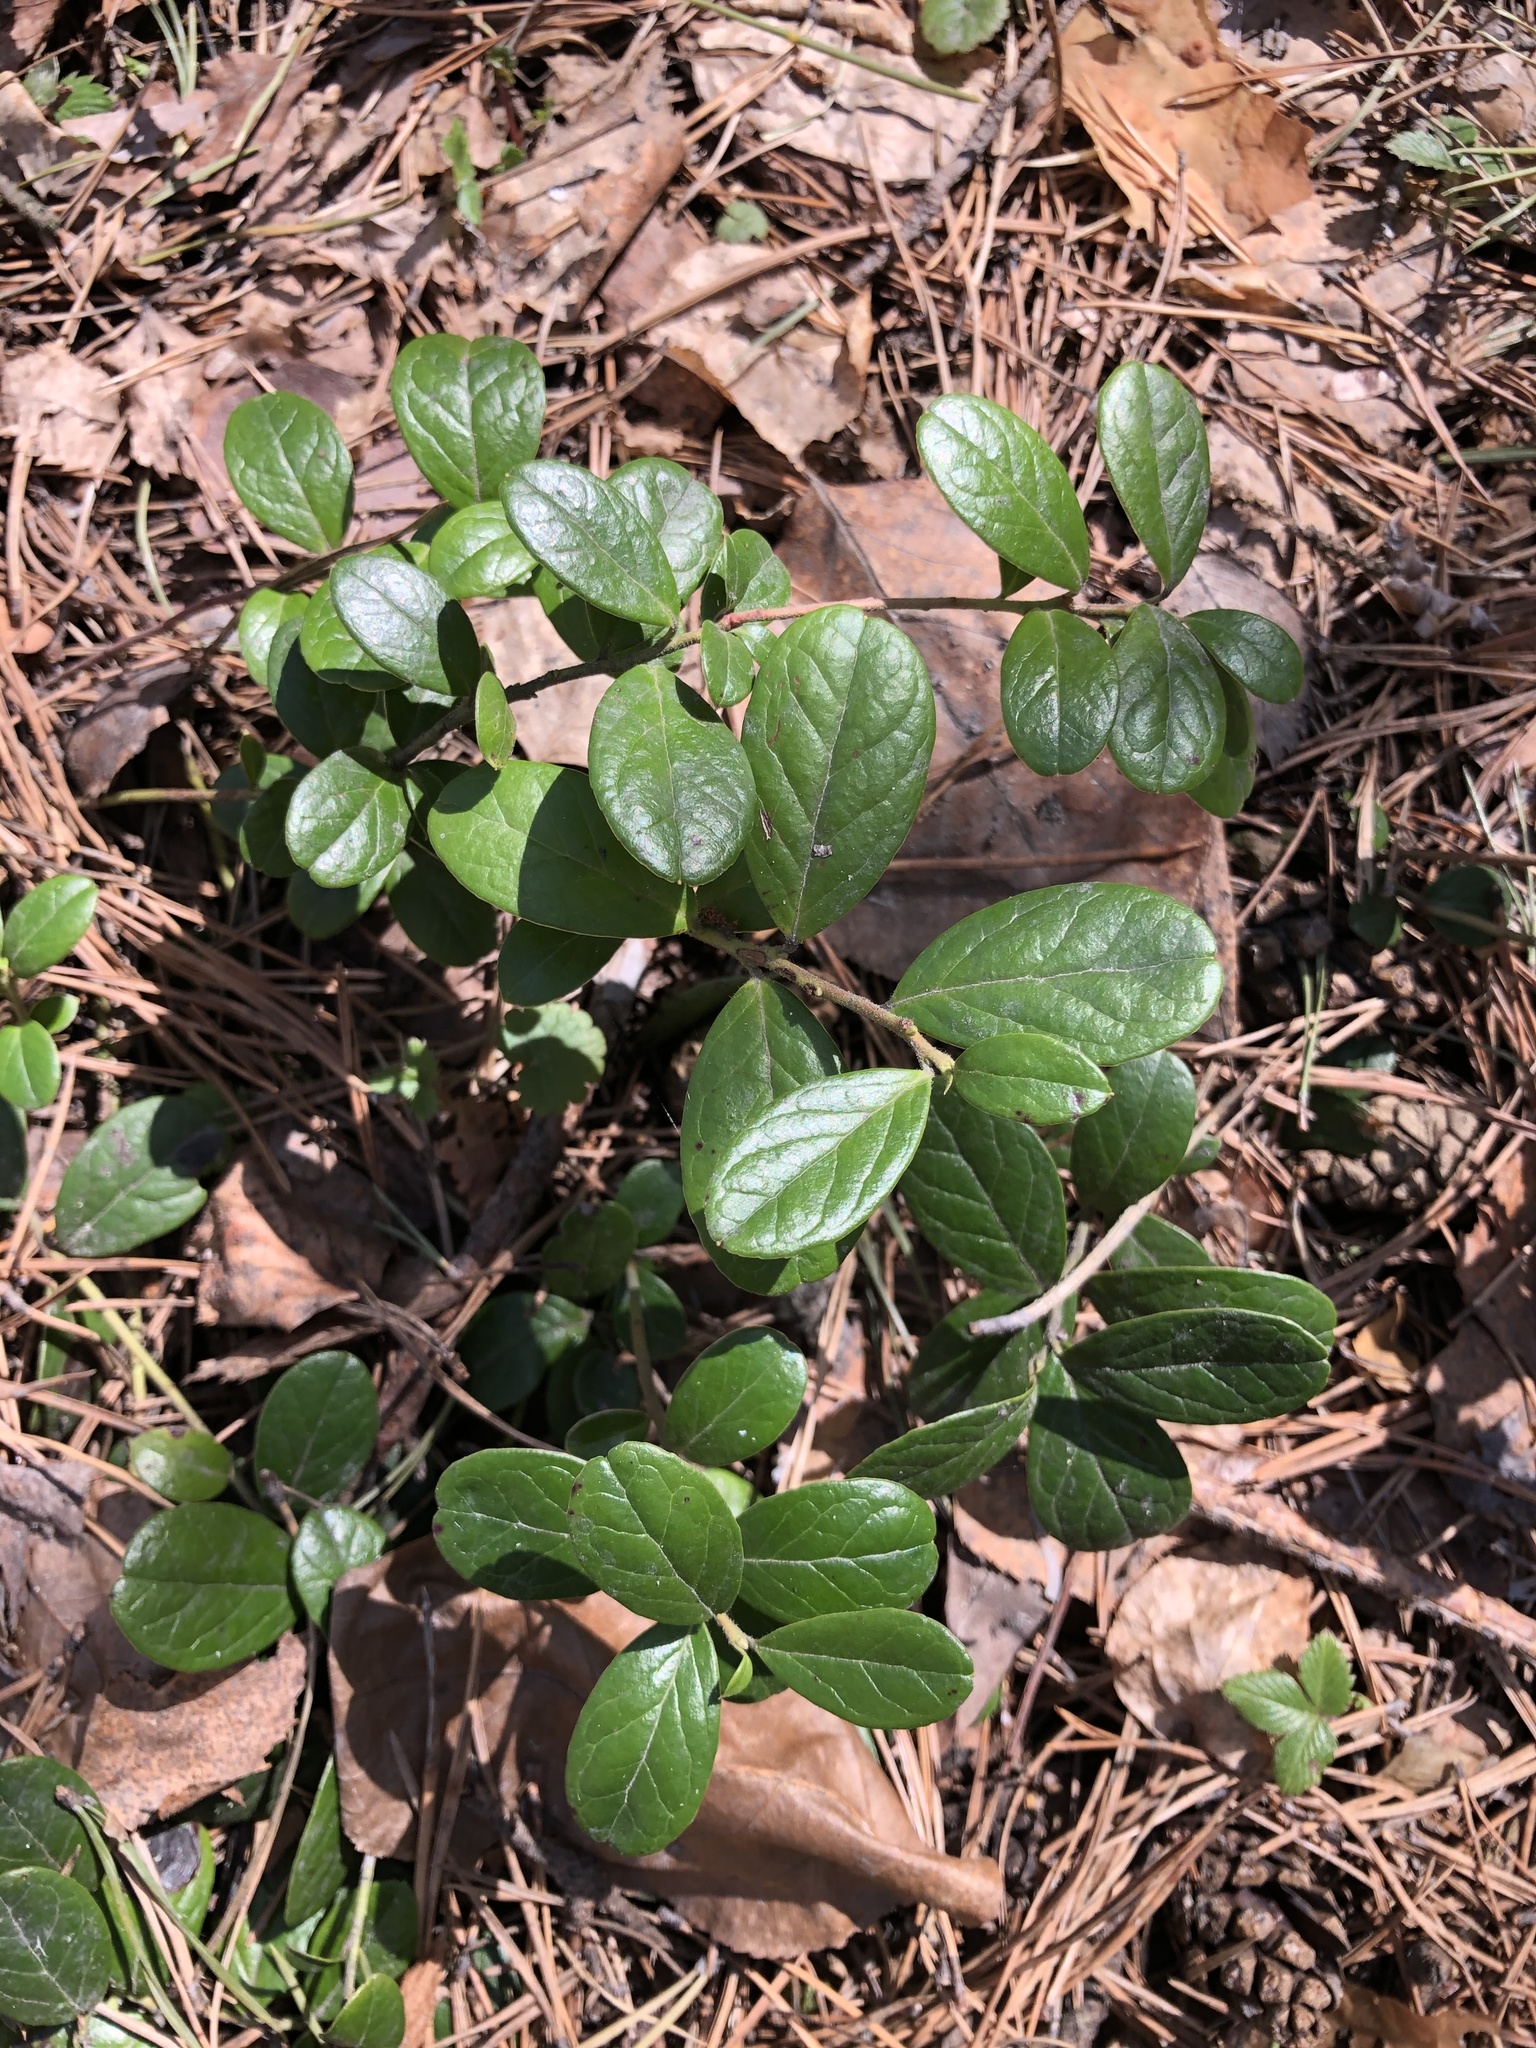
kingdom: Plantae
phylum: Tracheophyta
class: Magnoliopsida
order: Ericales
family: Ericaceae
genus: Vaccinium
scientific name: Vaccinium vitis-idaea
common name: Cowberry
